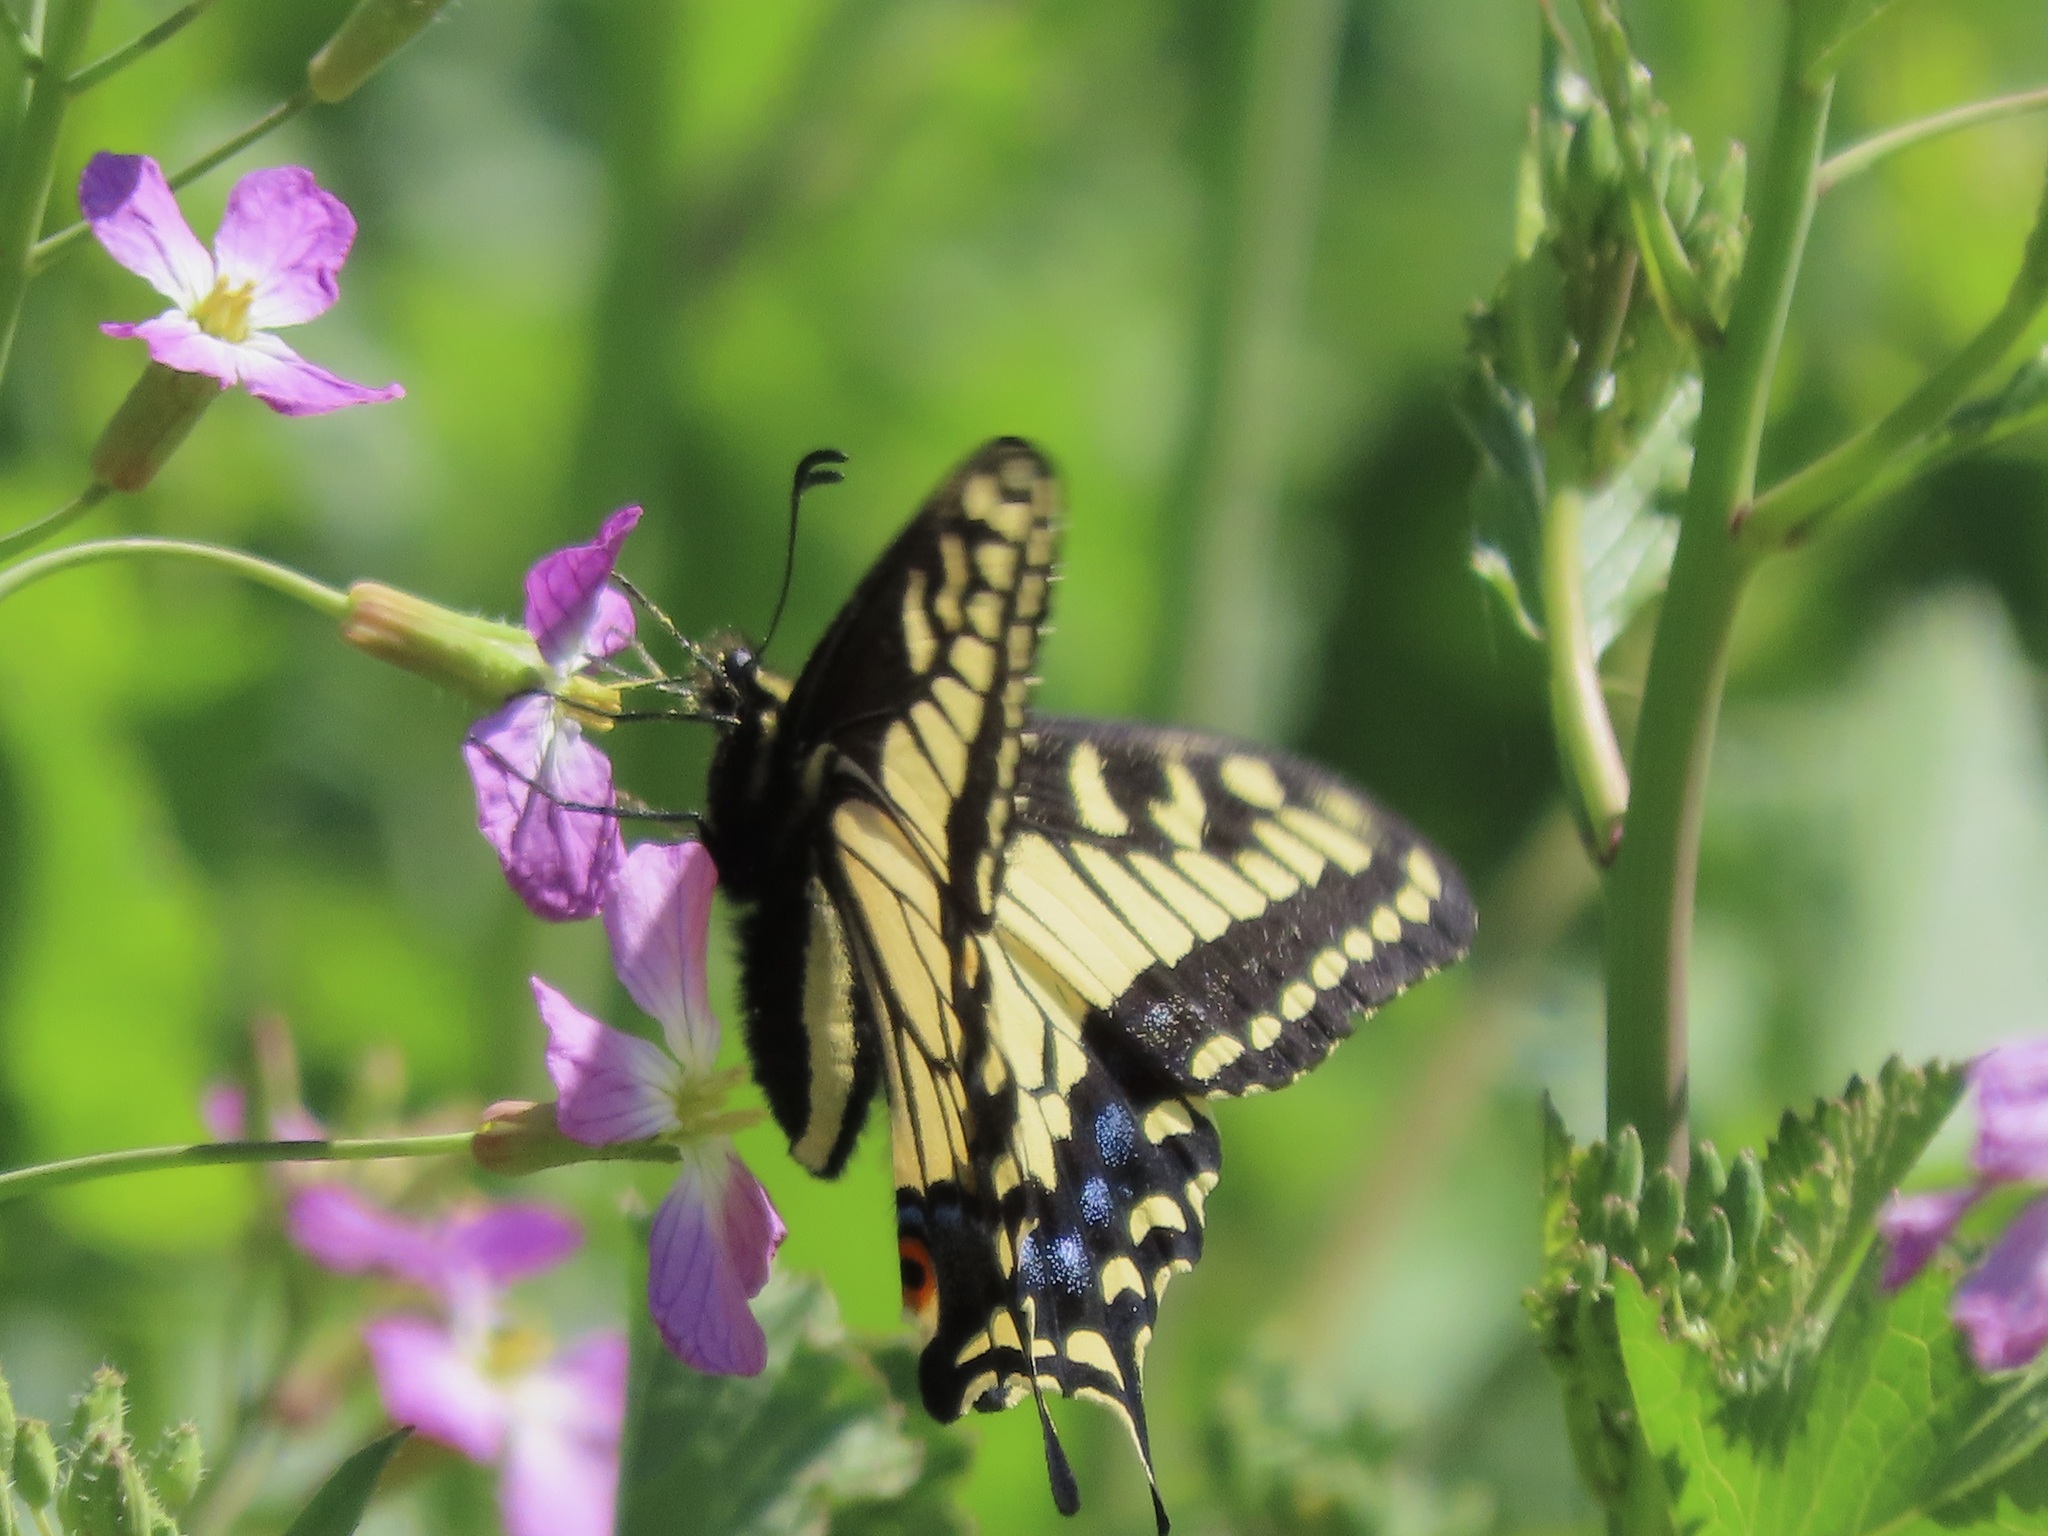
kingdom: Animalia
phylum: Arthropoda
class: Insecta
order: Lepidoptera
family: Papilionidae
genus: Papilio
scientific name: Papilio zelicaon
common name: Anise swallowtail
